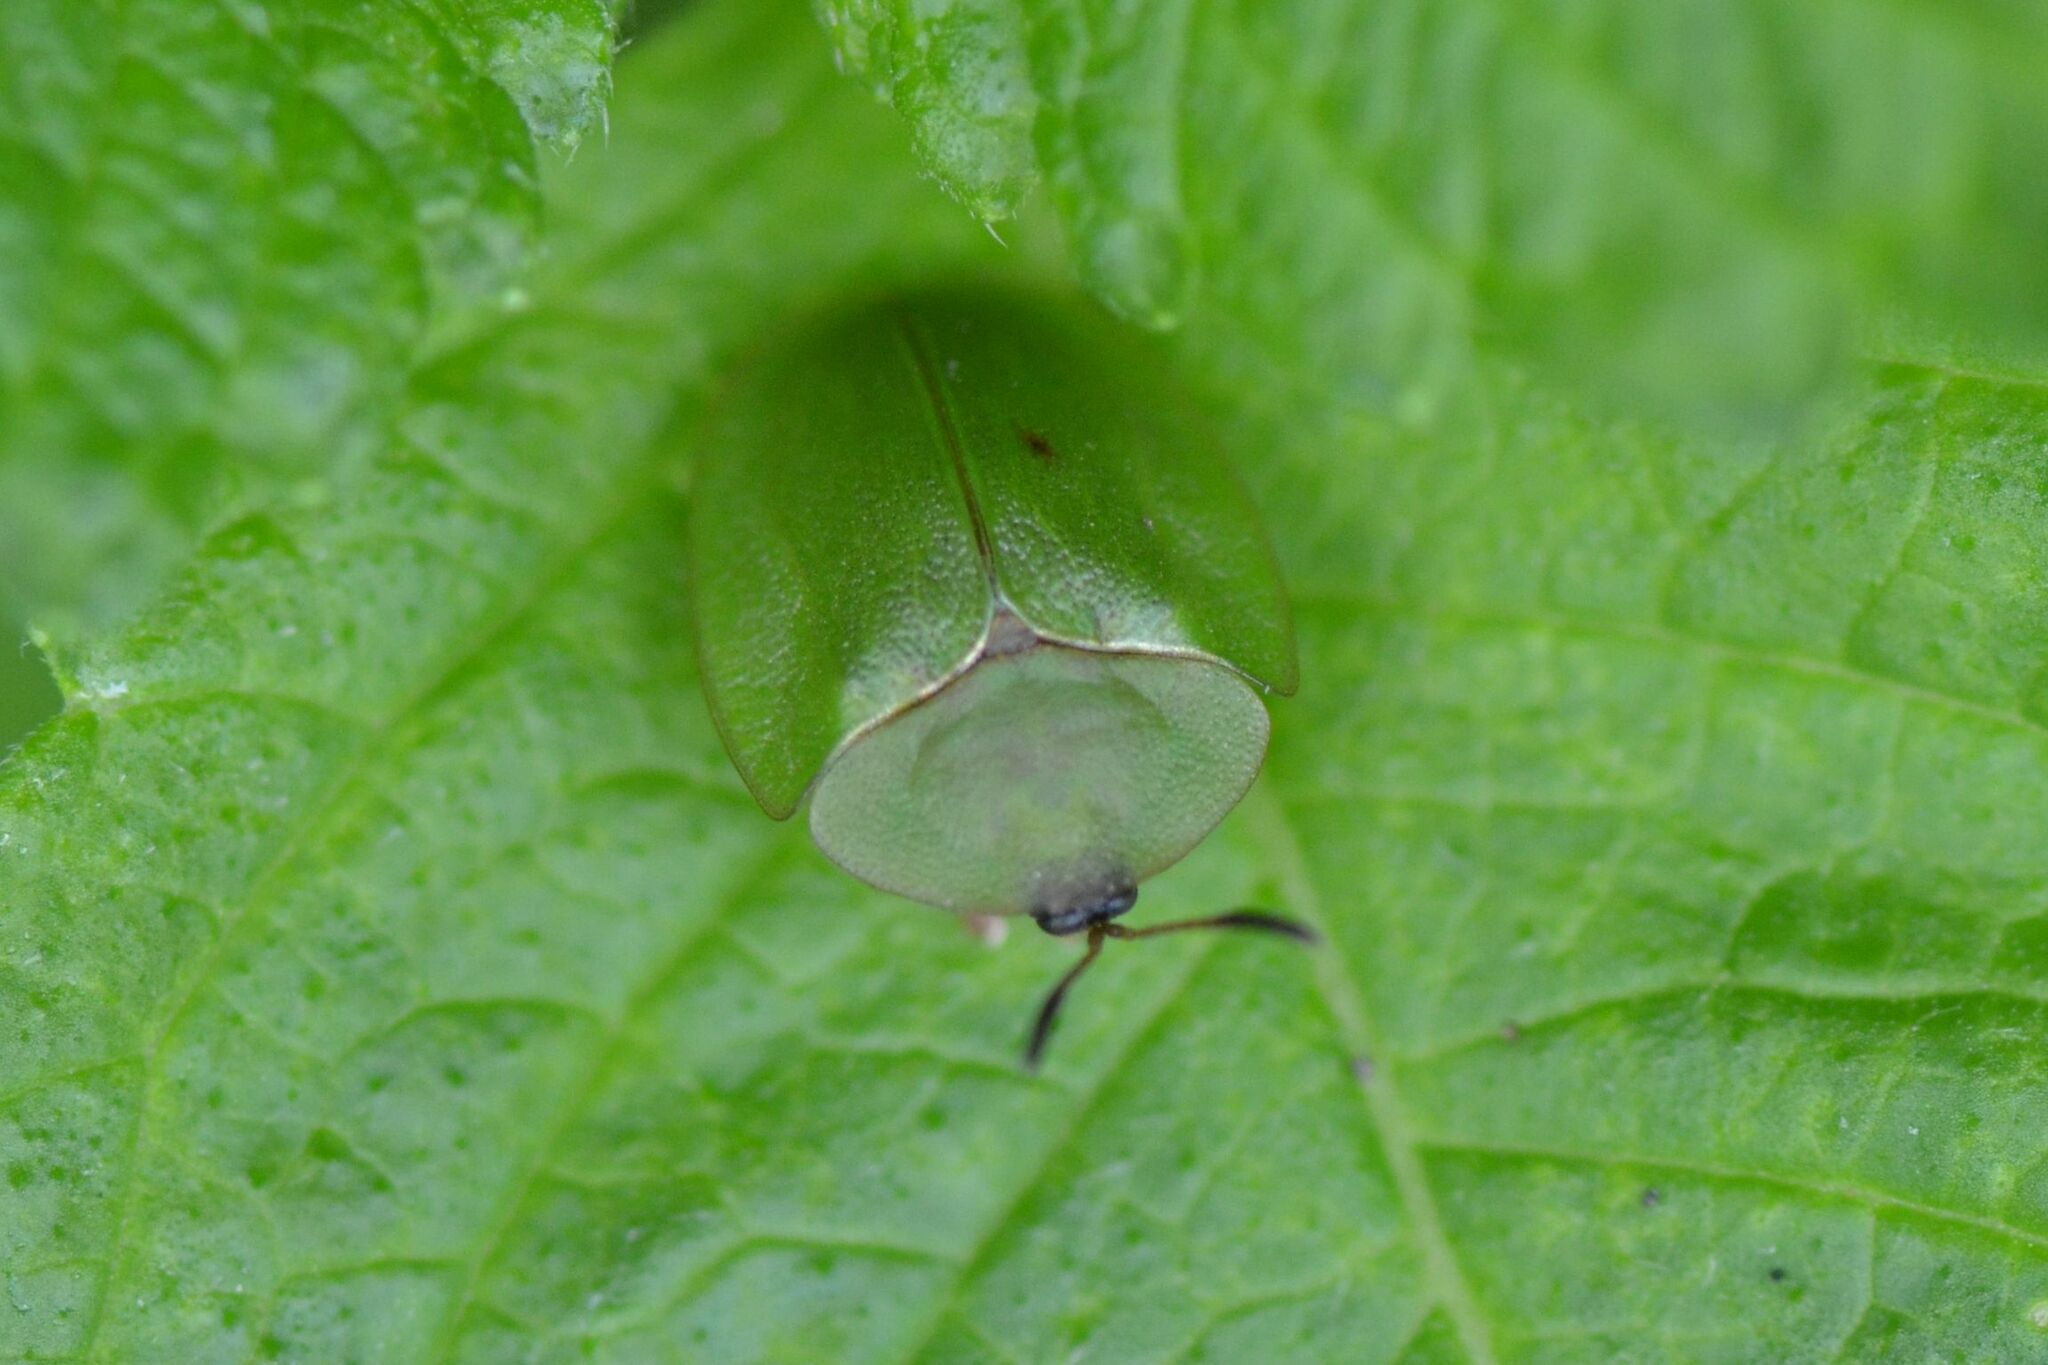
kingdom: Animalia
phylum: Arthropoda
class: Insecta
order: Coleoptera
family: Chrysomelidae
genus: Cassida
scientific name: Cassida viridis
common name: Green tortoise beetle
